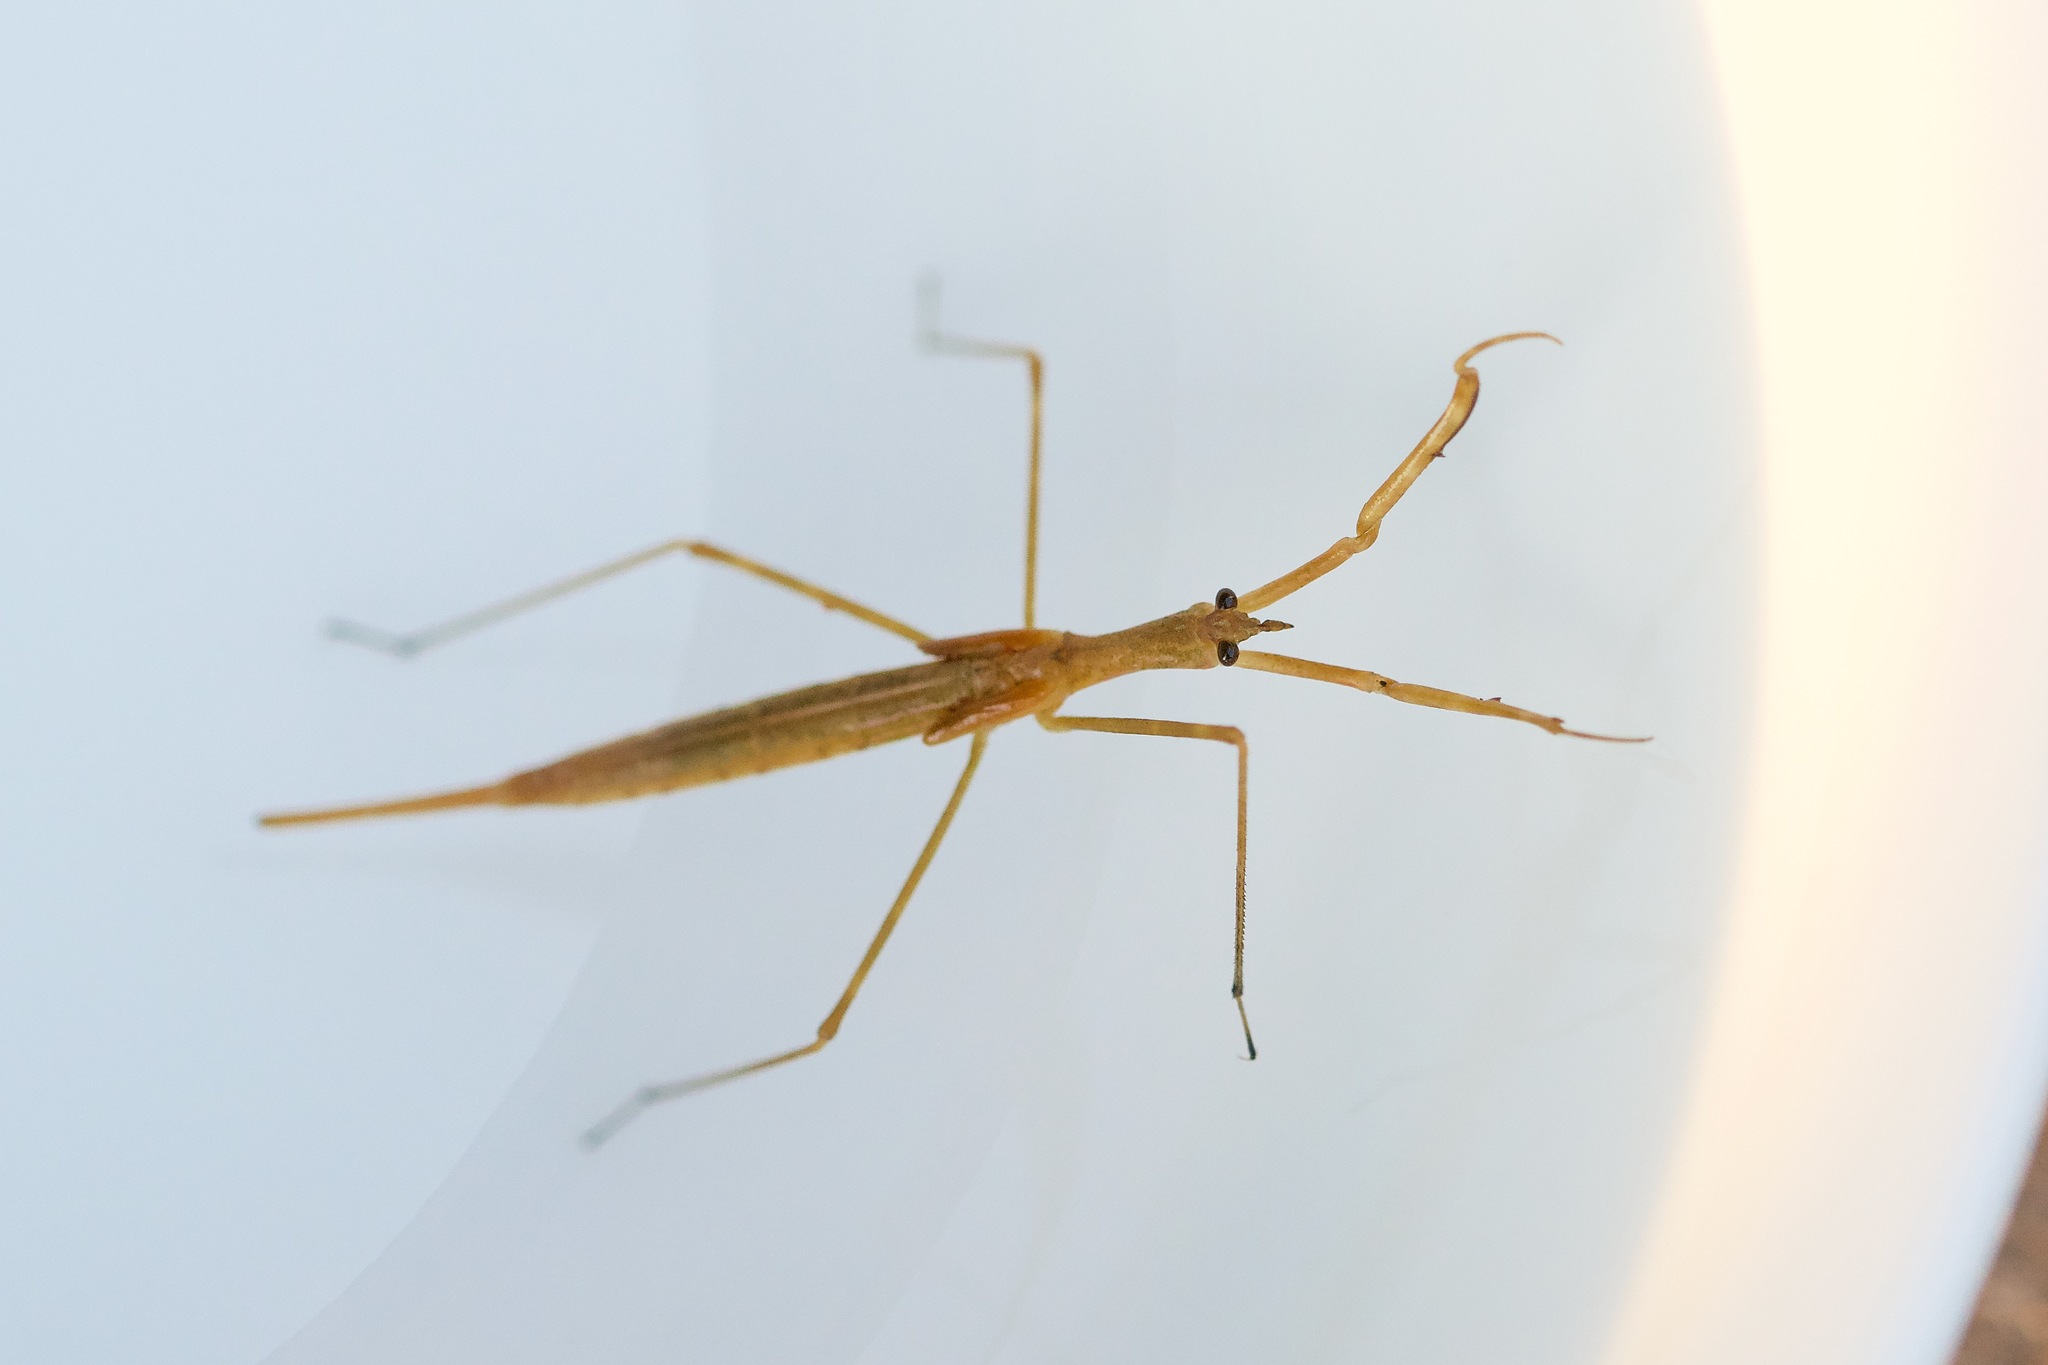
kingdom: Animalia
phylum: Arthropoda
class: Insecta
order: Hemiptera
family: Nepidae
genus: Ranatra
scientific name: Ranatra
